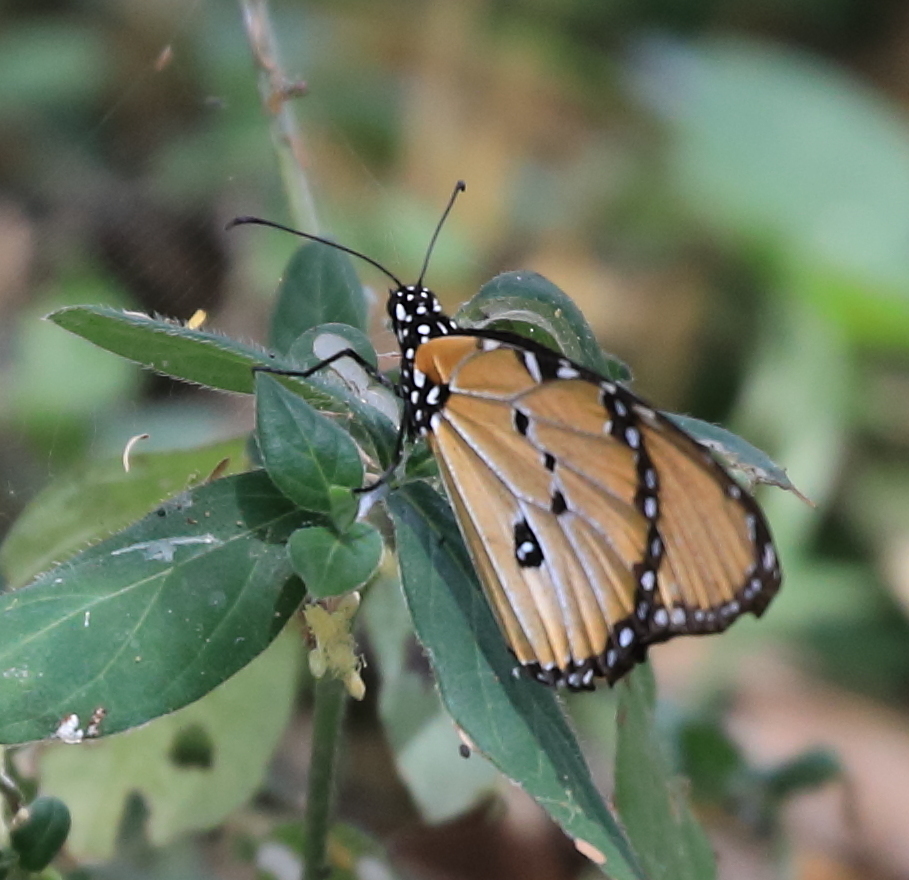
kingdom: Animalia
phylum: Arthropoda
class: Insecta
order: Lepidoptera
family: Nymphalidae
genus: Danaus
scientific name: Danaus chrysippus
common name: Plain tiger
